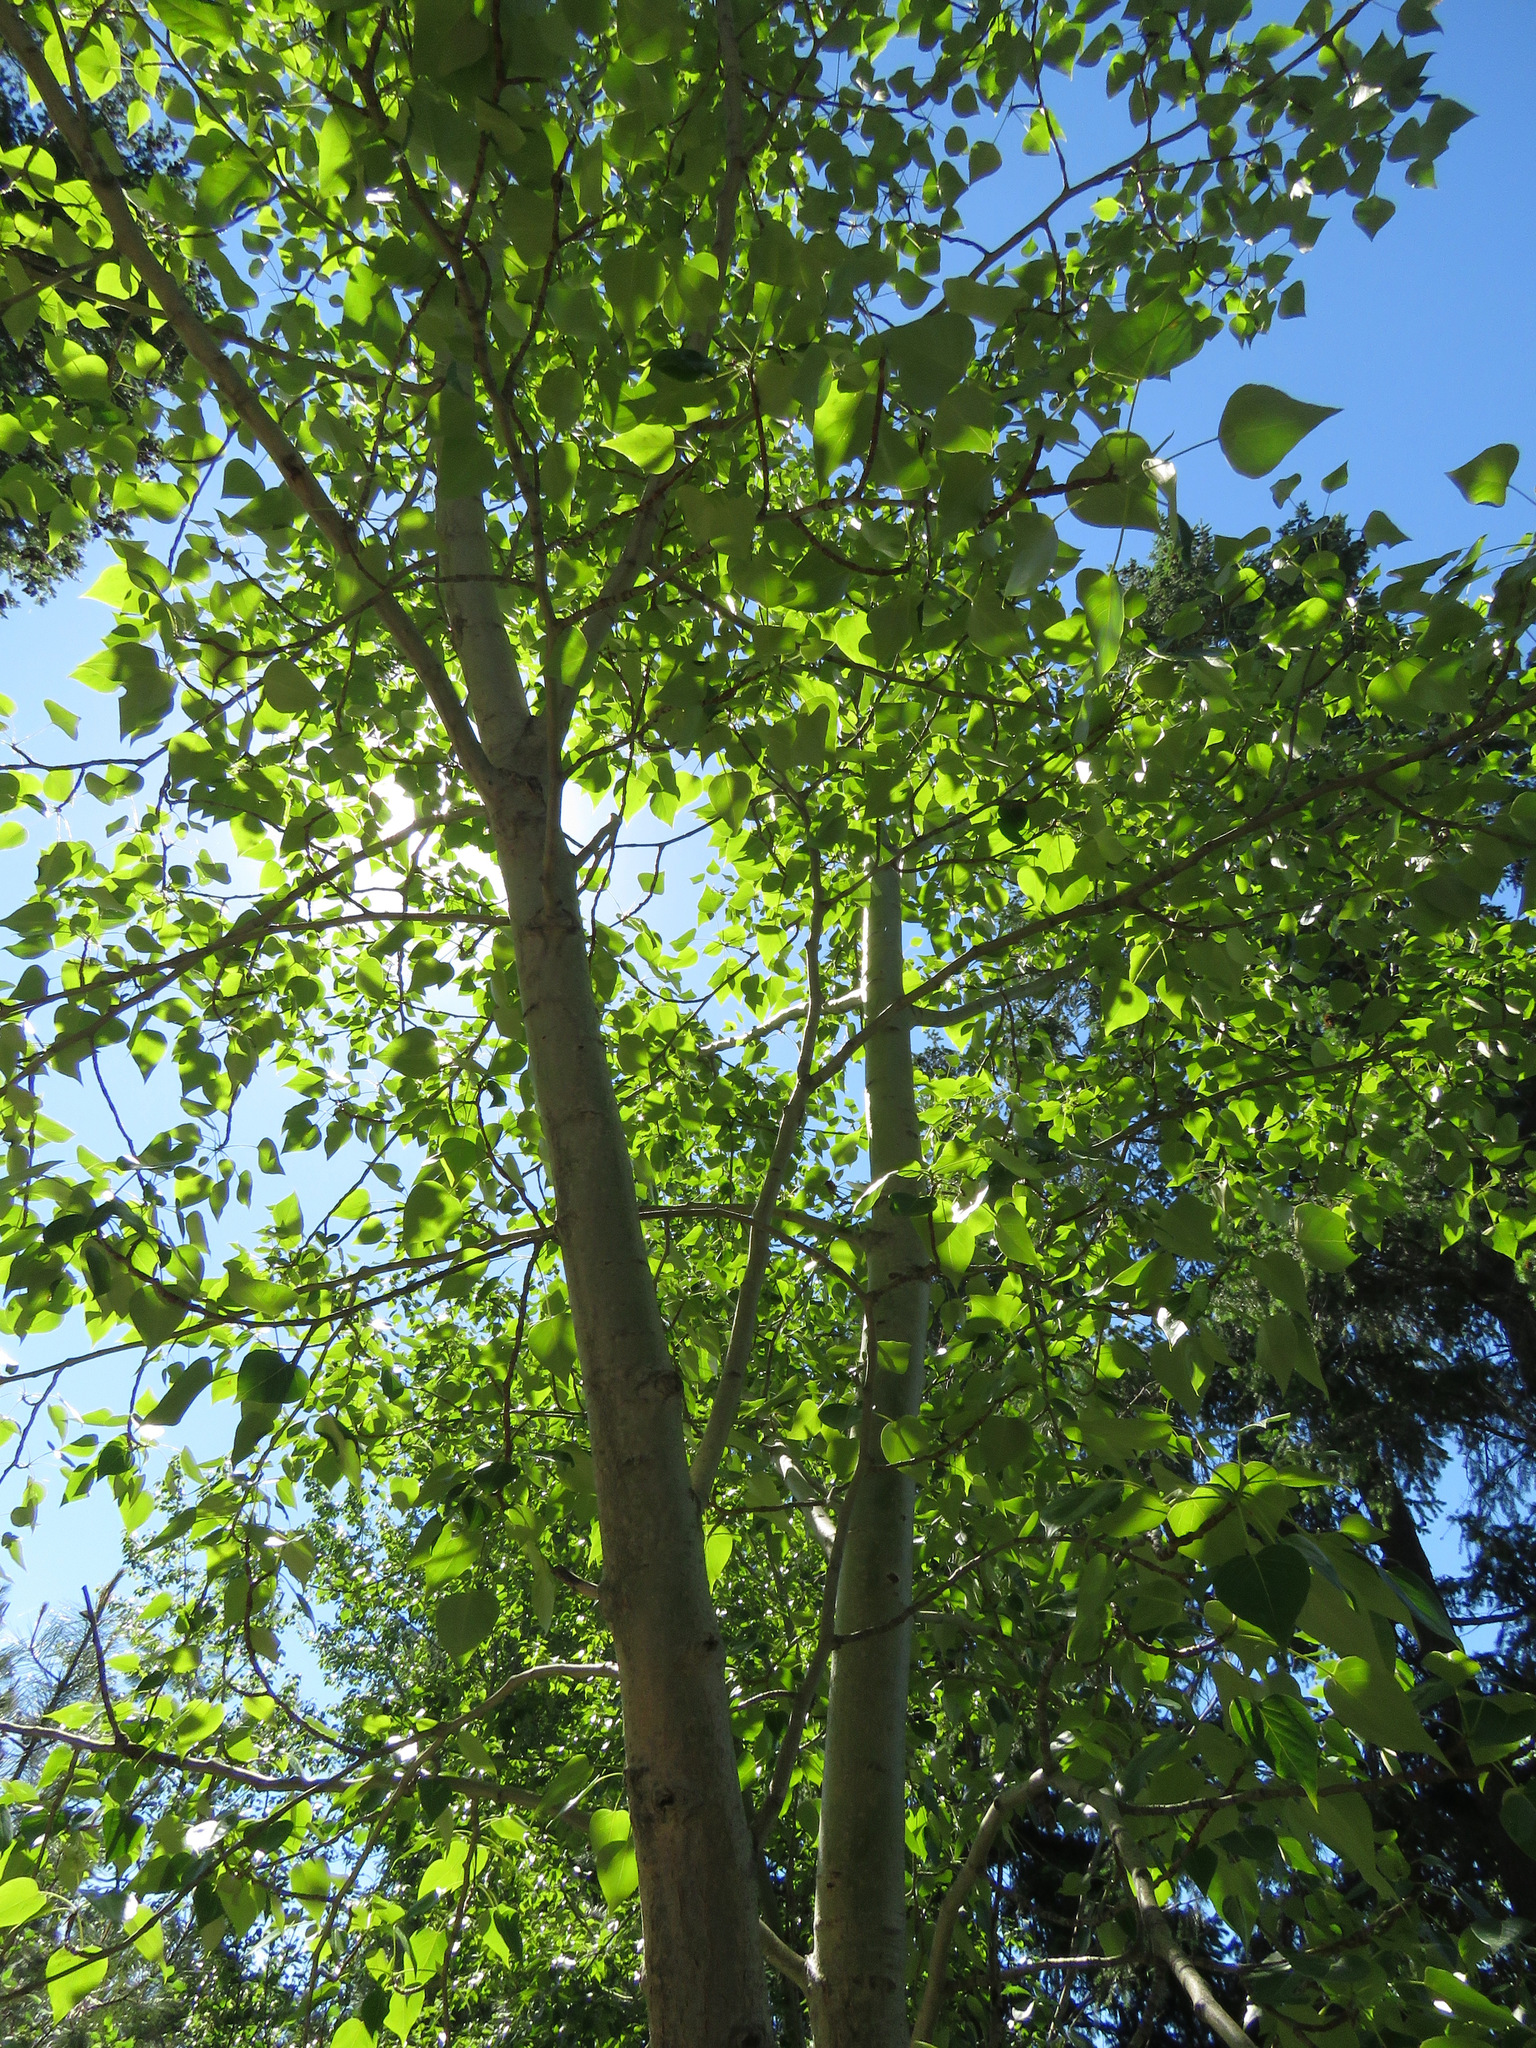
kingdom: Plantae
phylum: Tracheophyta
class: Magnoliopsida
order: Malpighiales
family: Salicaceae
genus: Populus
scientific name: Populus trichocarpa
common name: Black cottonwood
